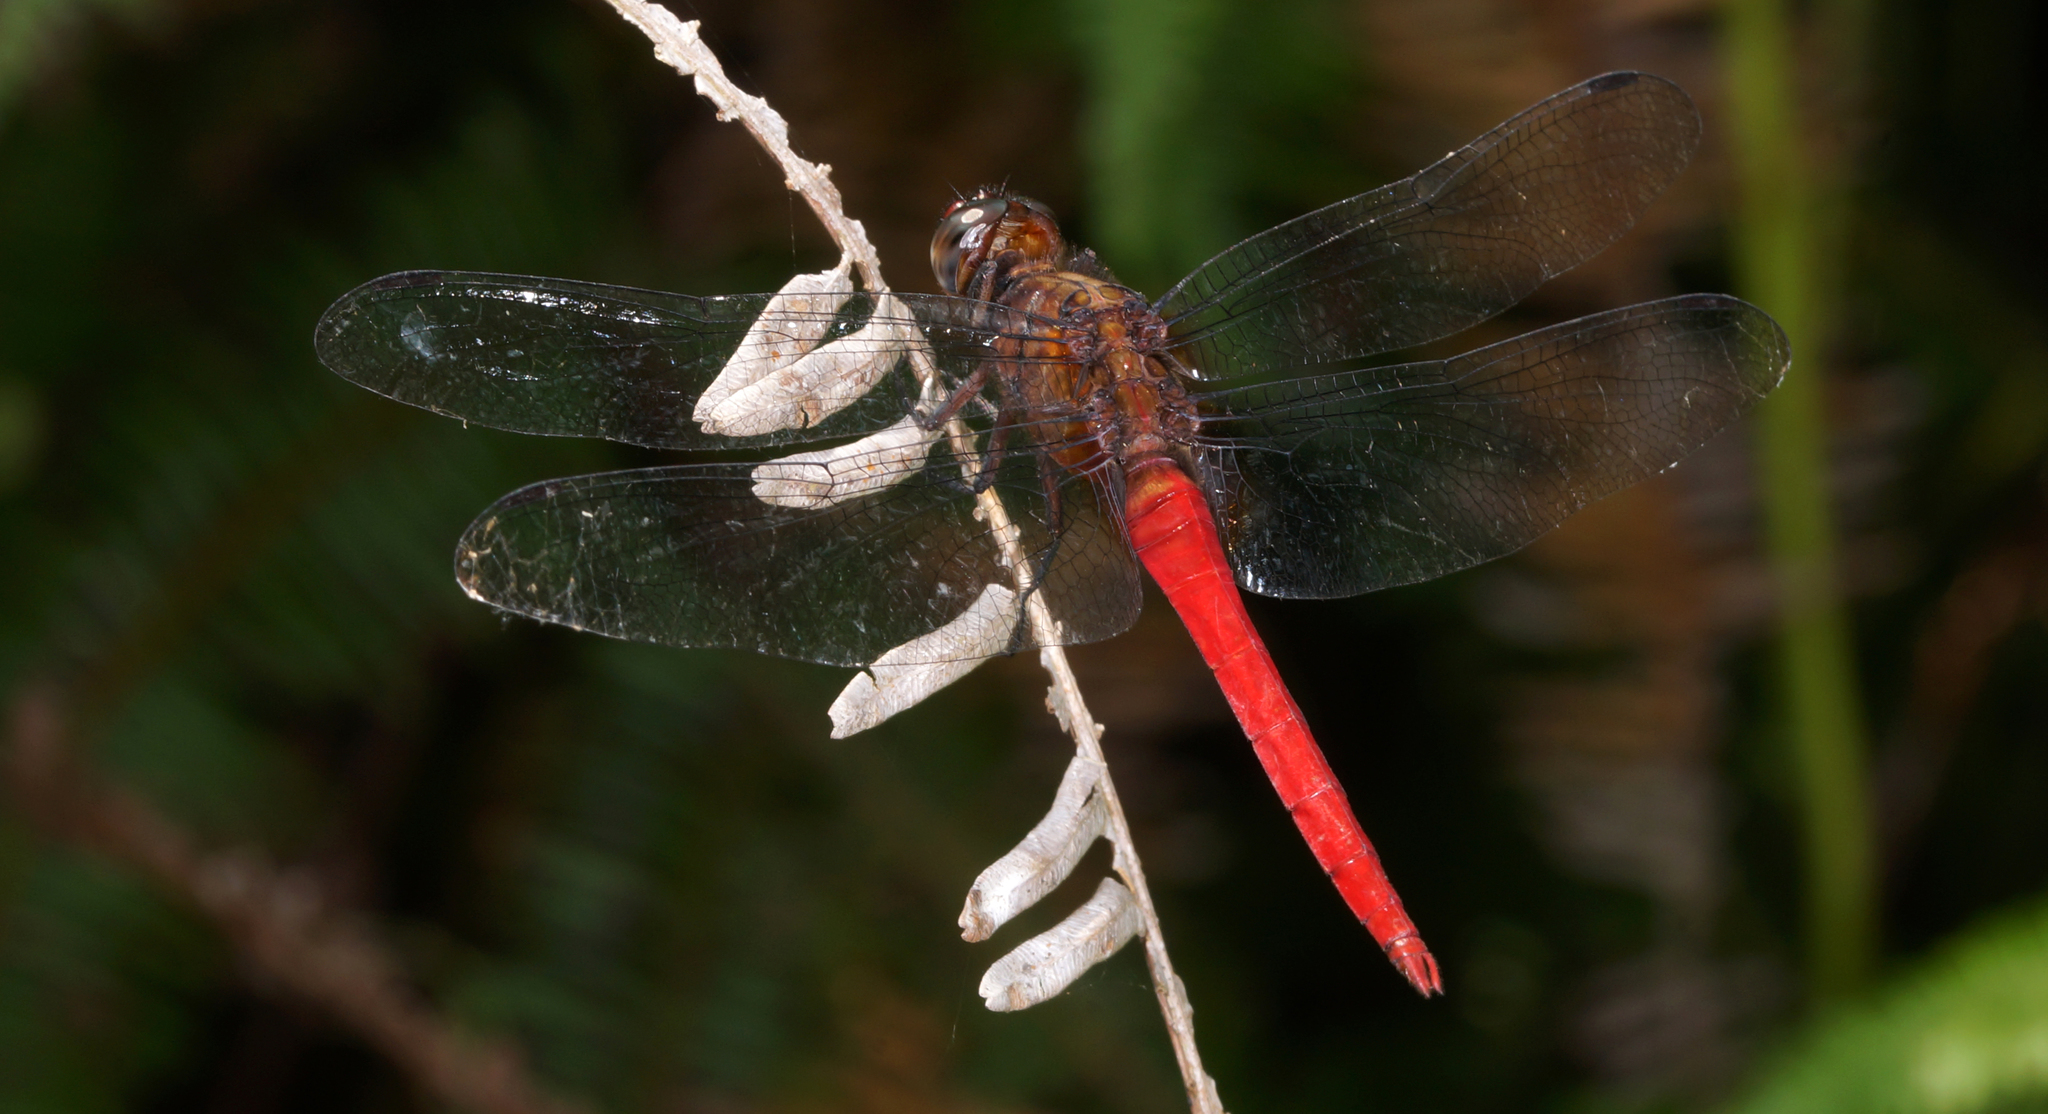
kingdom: Animalia
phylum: Arthropoda
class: Insecta
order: Odonata
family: Libellulidae
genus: Orthetrum
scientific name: Orthetrum chrysis
